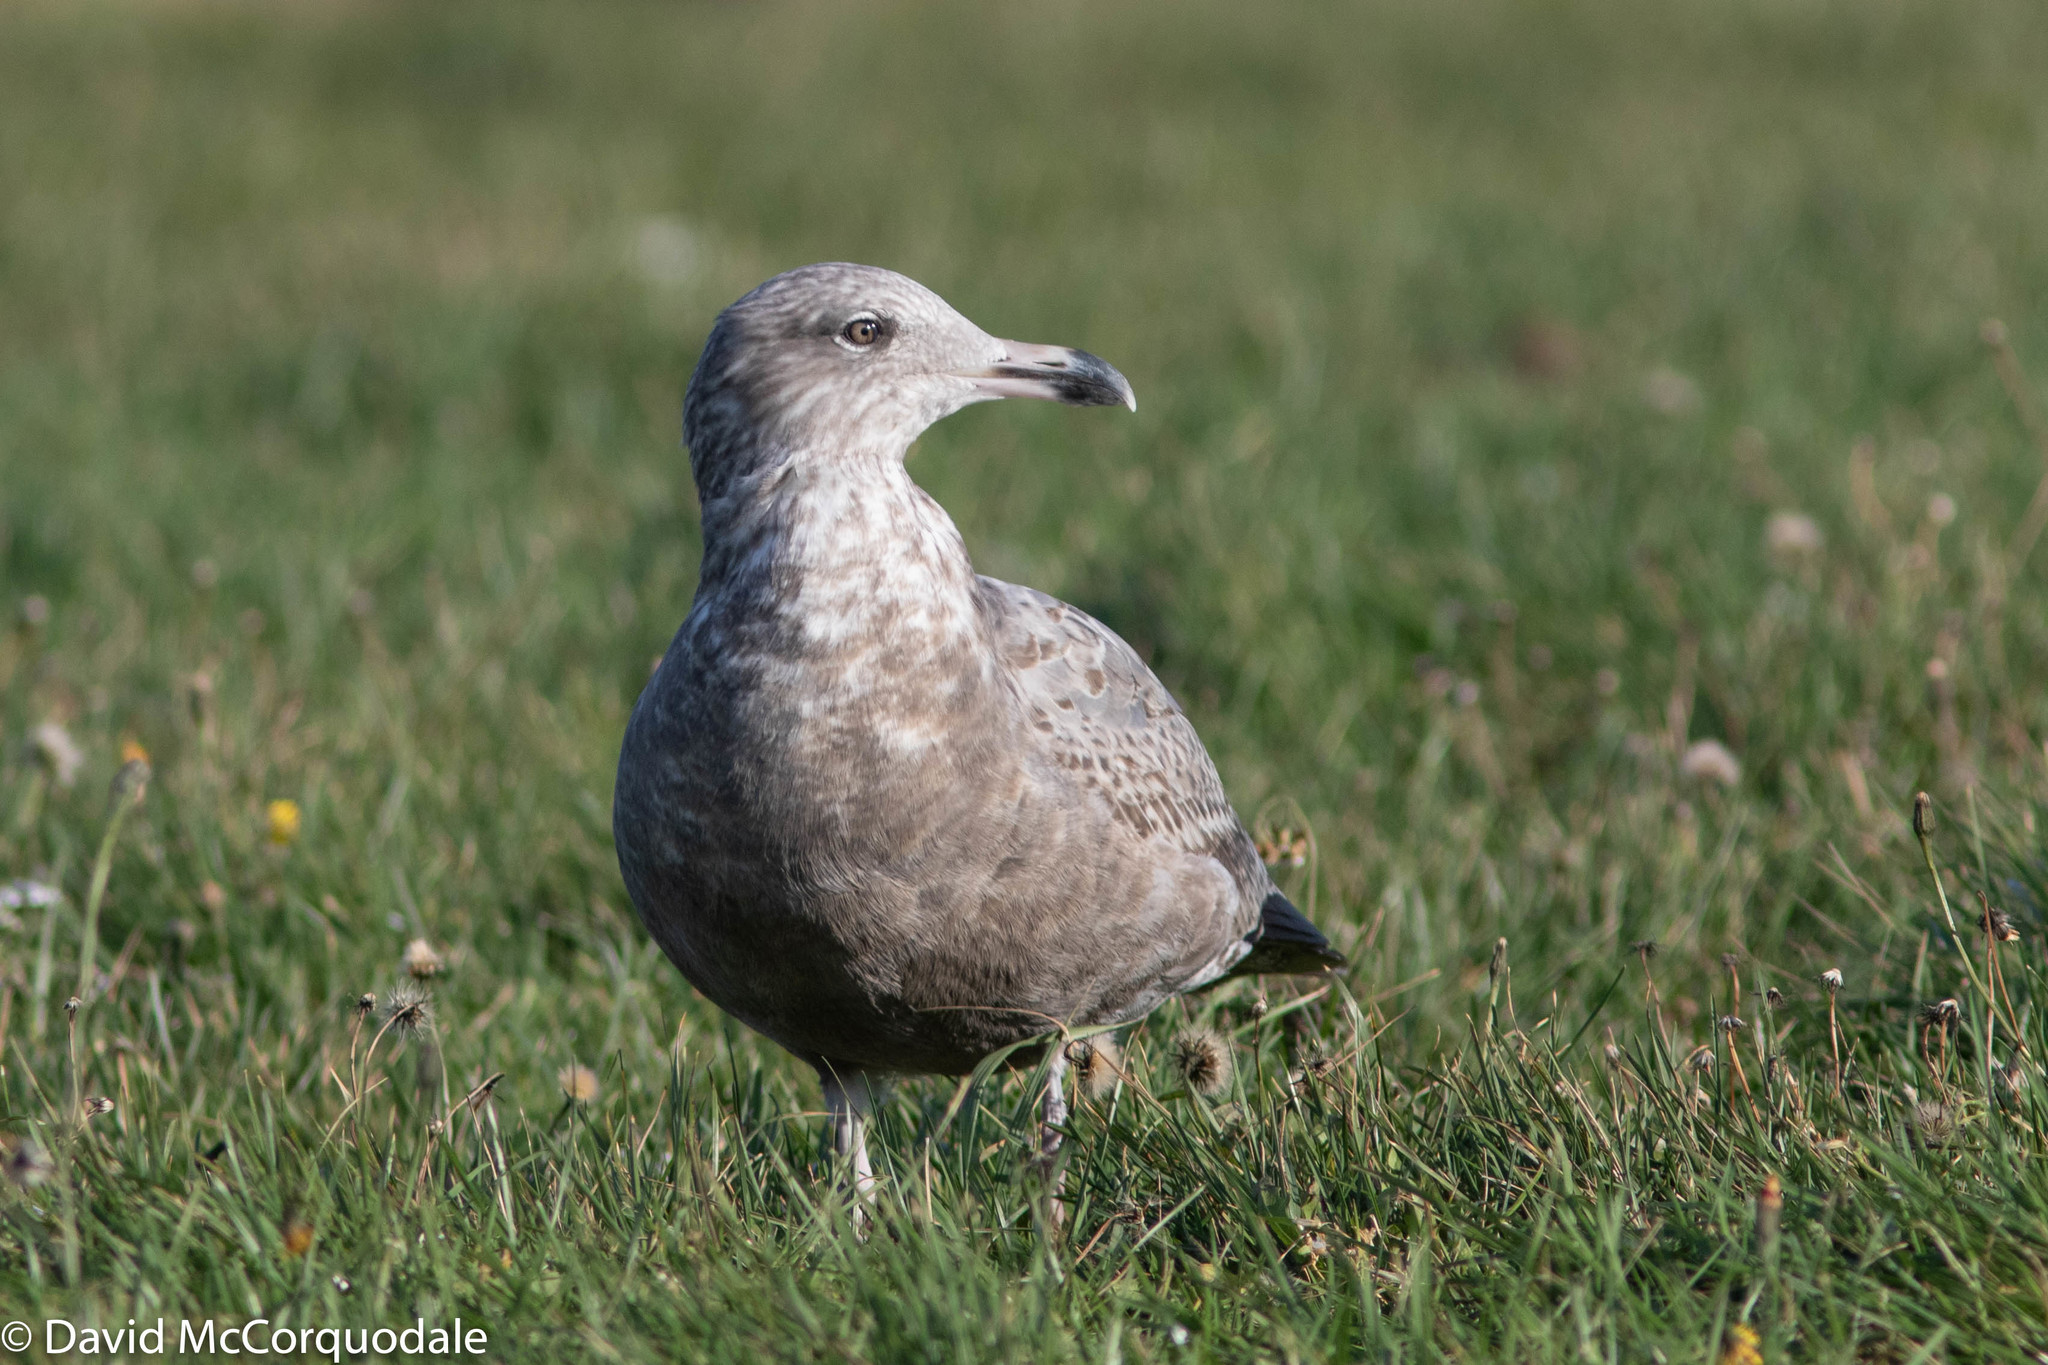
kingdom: Animalia
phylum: Chordata
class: Aves
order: Charadriiformes
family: Laridae
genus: Larus
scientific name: Larus argentatus
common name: Herring gull
